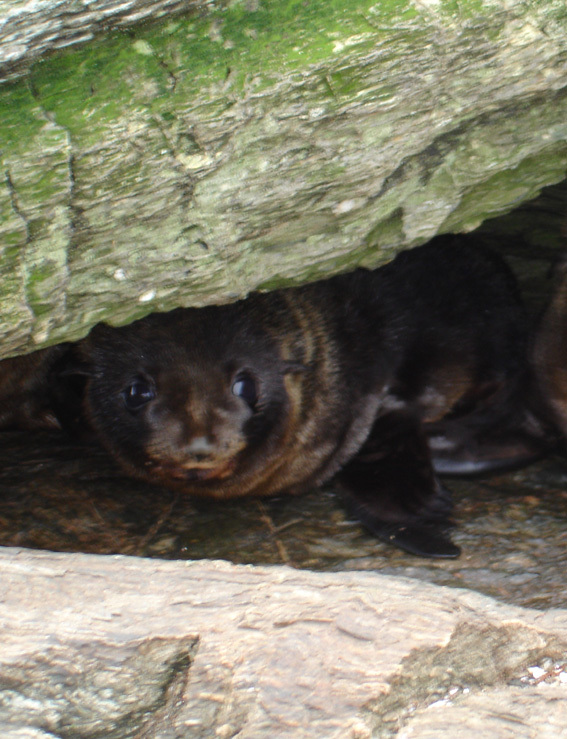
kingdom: Animalia
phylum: Chordata
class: Mammalia
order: Carnivora
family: Otariidae
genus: Arctocephalus
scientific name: Arctocephalus forsteri
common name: New zealand fur seal
